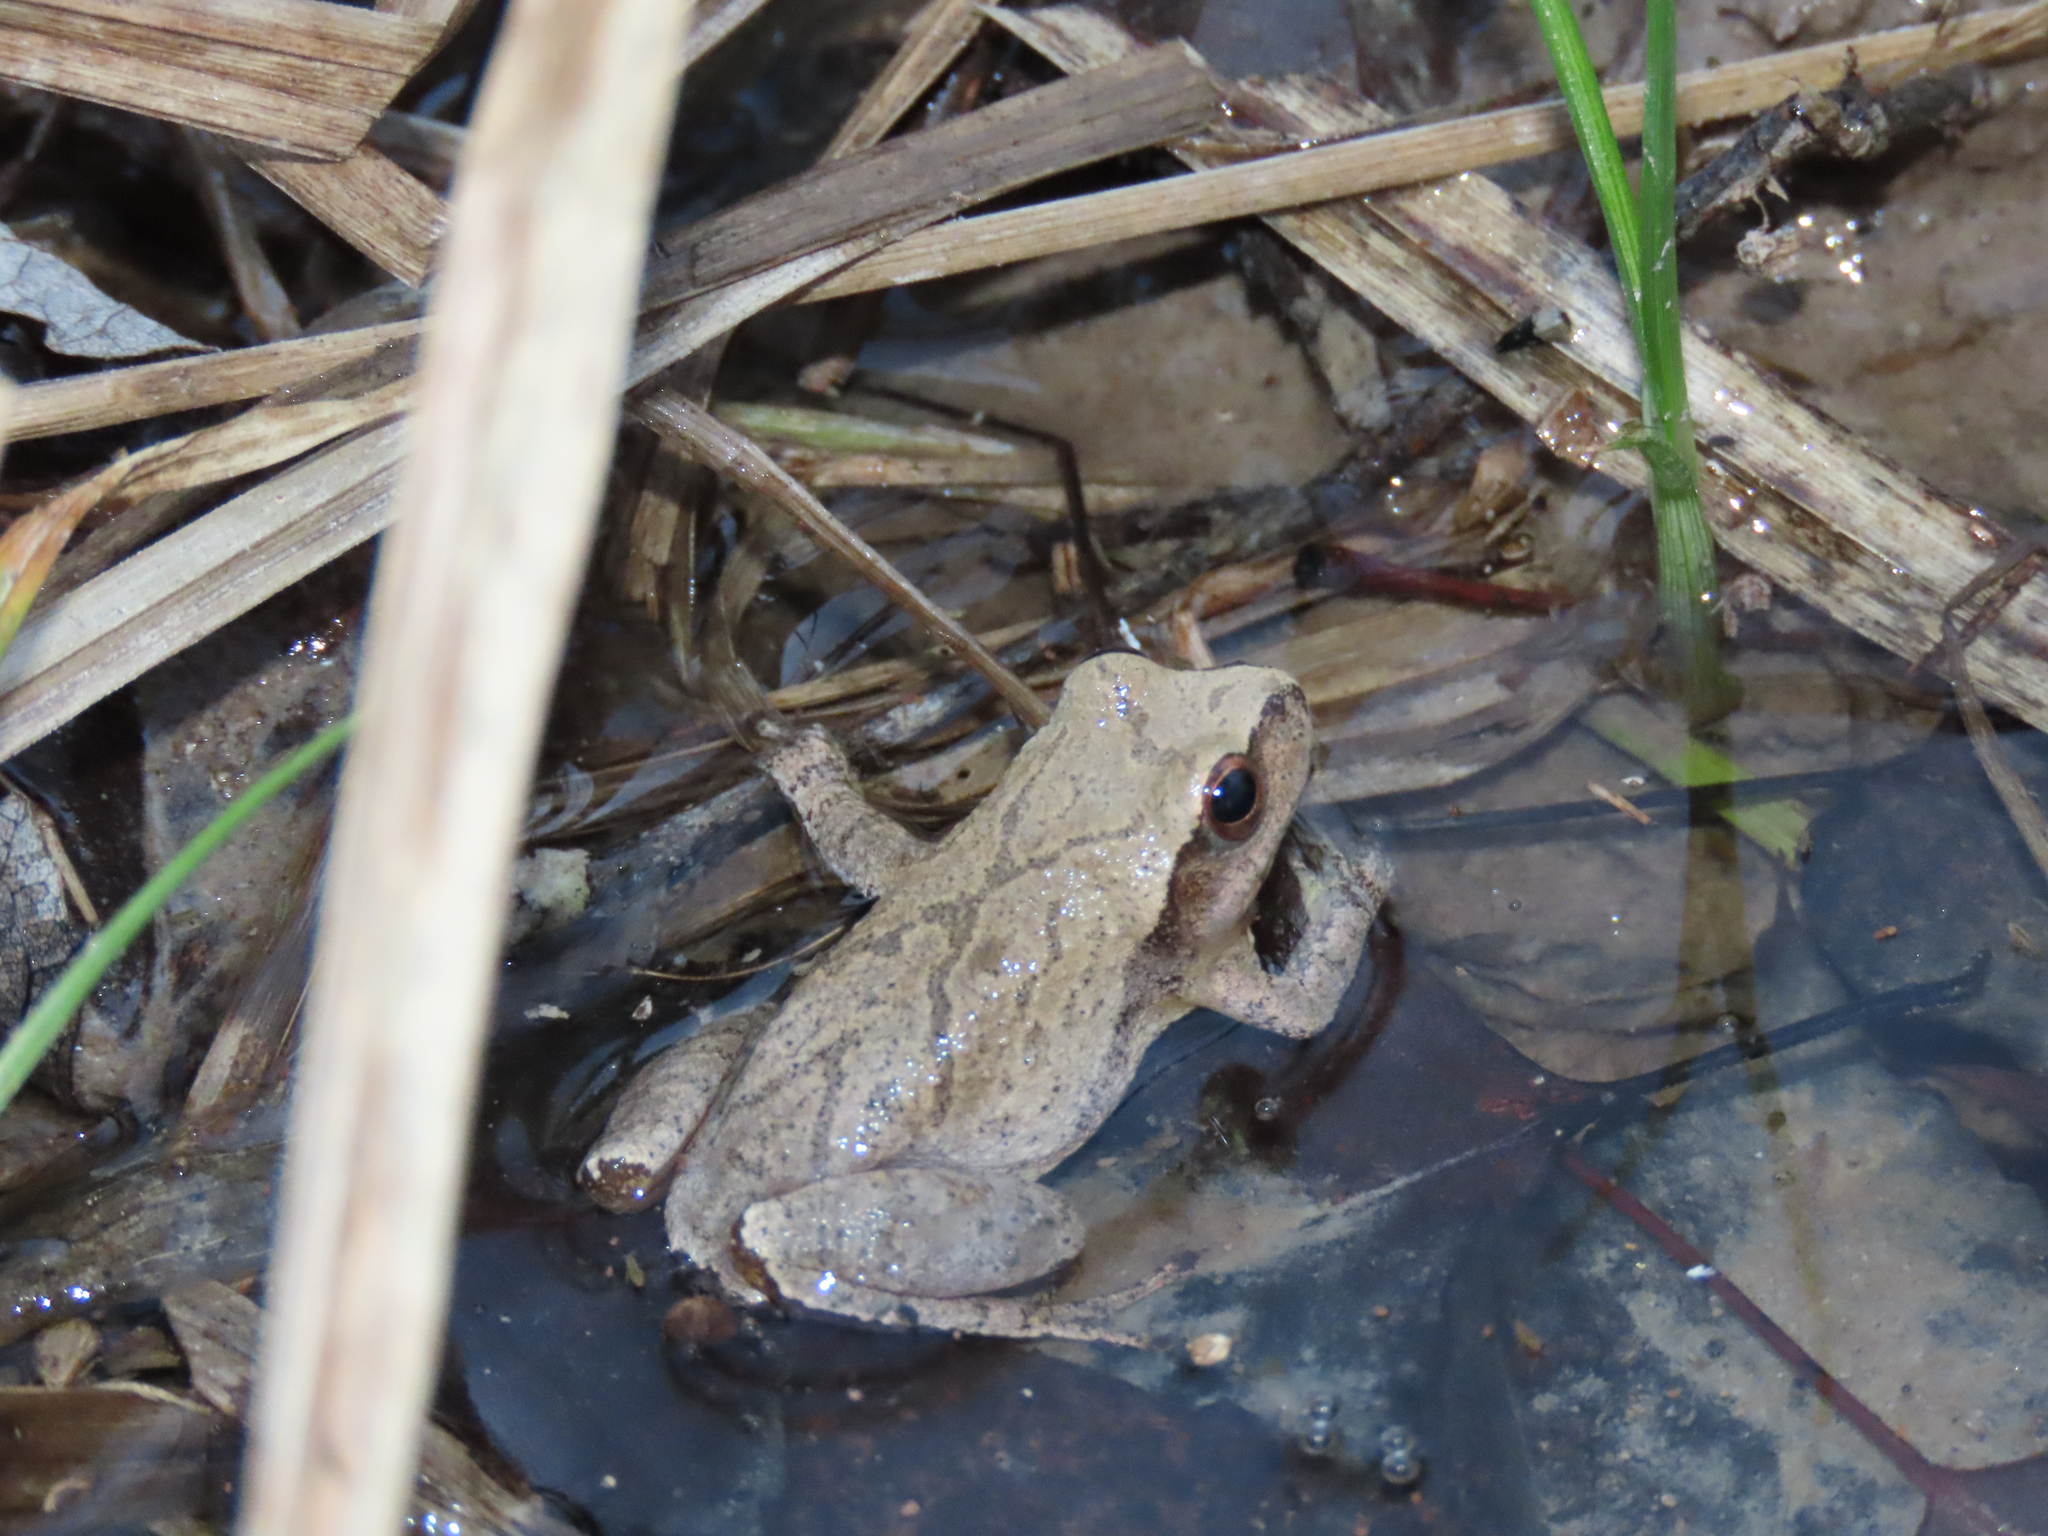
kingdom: Animalia
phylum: Chordata
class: Amphibia
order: Anura
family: Hylidae
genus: Pseudacris
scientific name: Pseudacris crucifer
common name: Spring peeper
